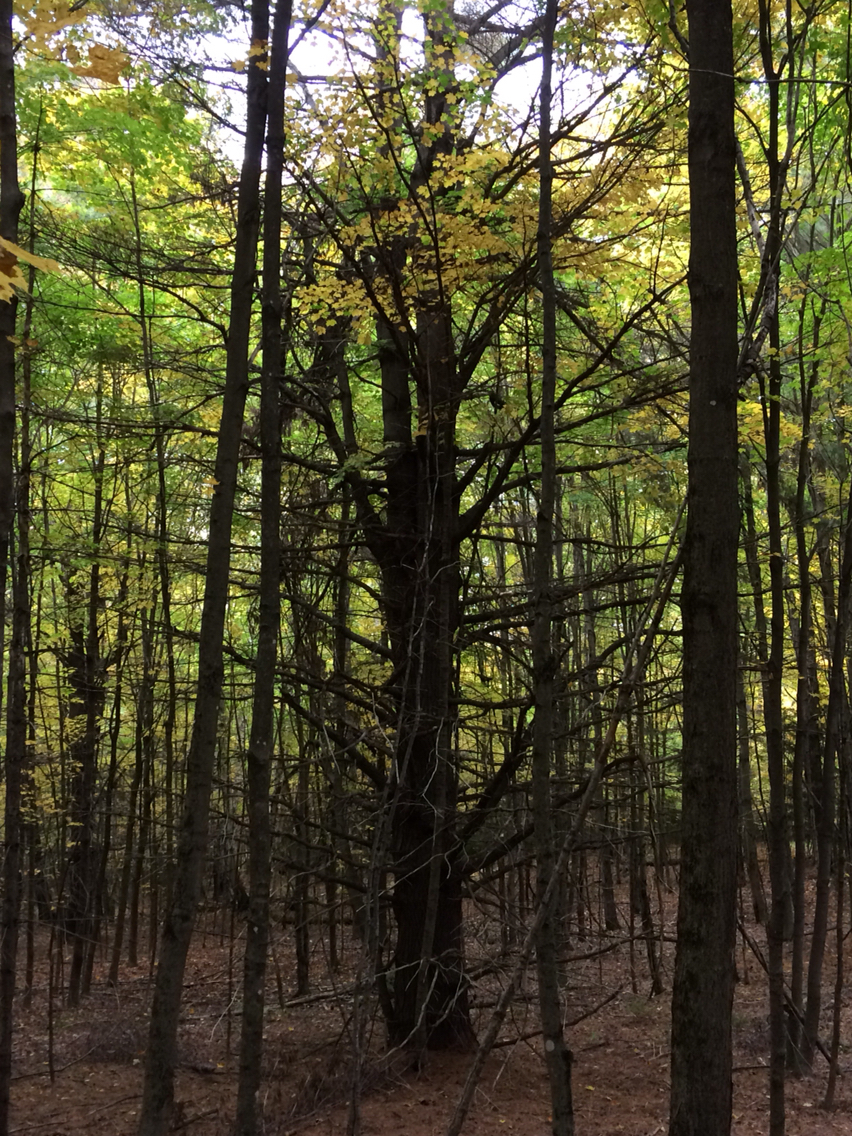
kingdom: Plantae
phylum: Tracheophyta
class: Pinopsida
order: Pinales
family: Pinaceae
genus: Pinus
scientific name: Pinus strobus
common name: Weymouth pine
